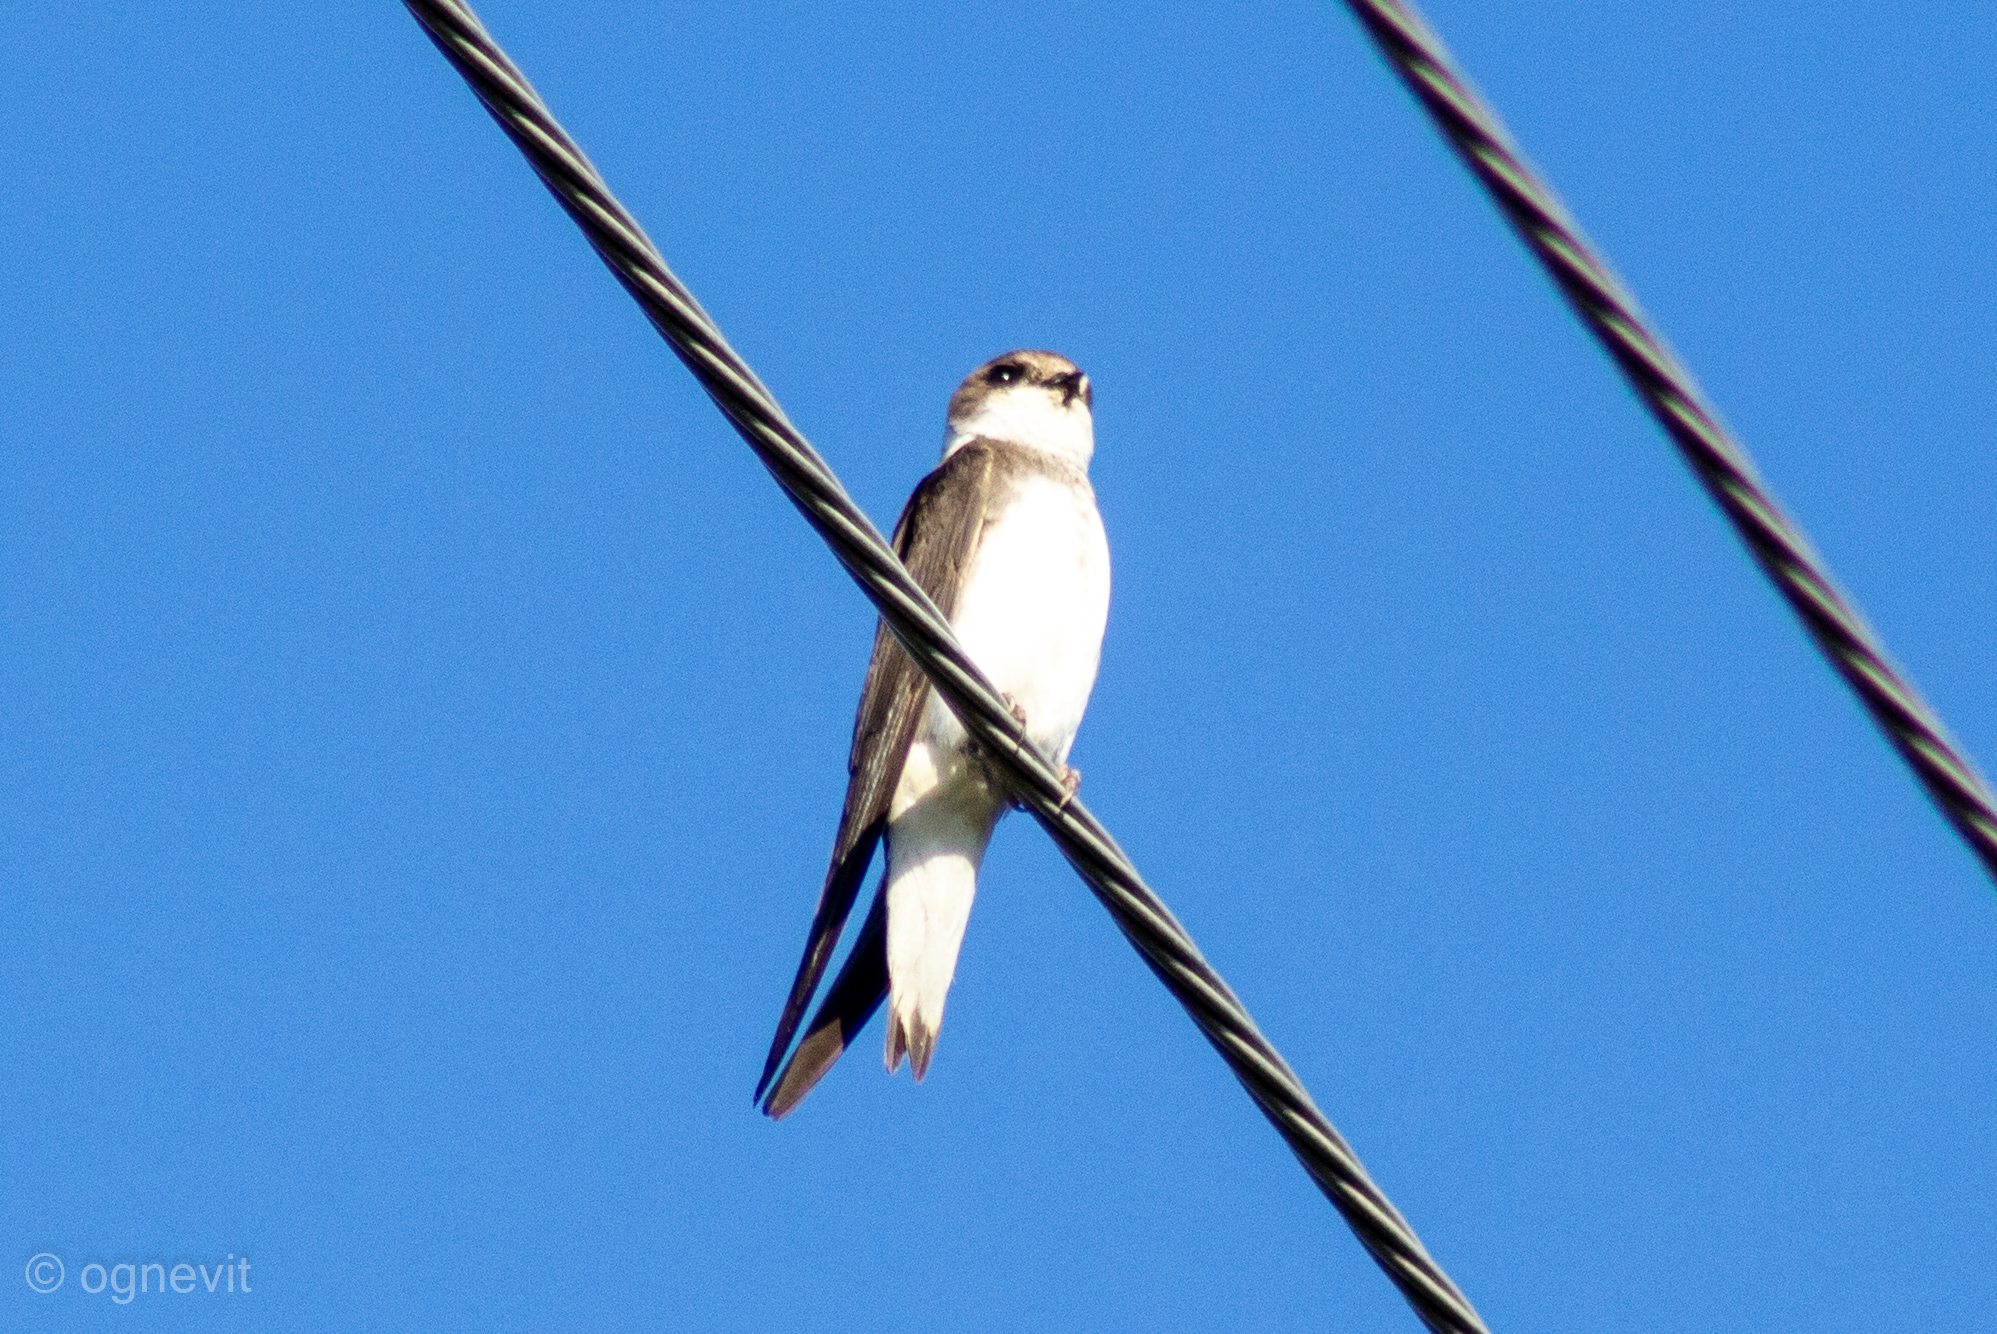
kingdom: Animalia
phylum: Chordata
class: Aves
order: Passeriformes
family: Hirundinidae
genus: Riparia
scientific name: Riparia riparia
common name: Sand martin
